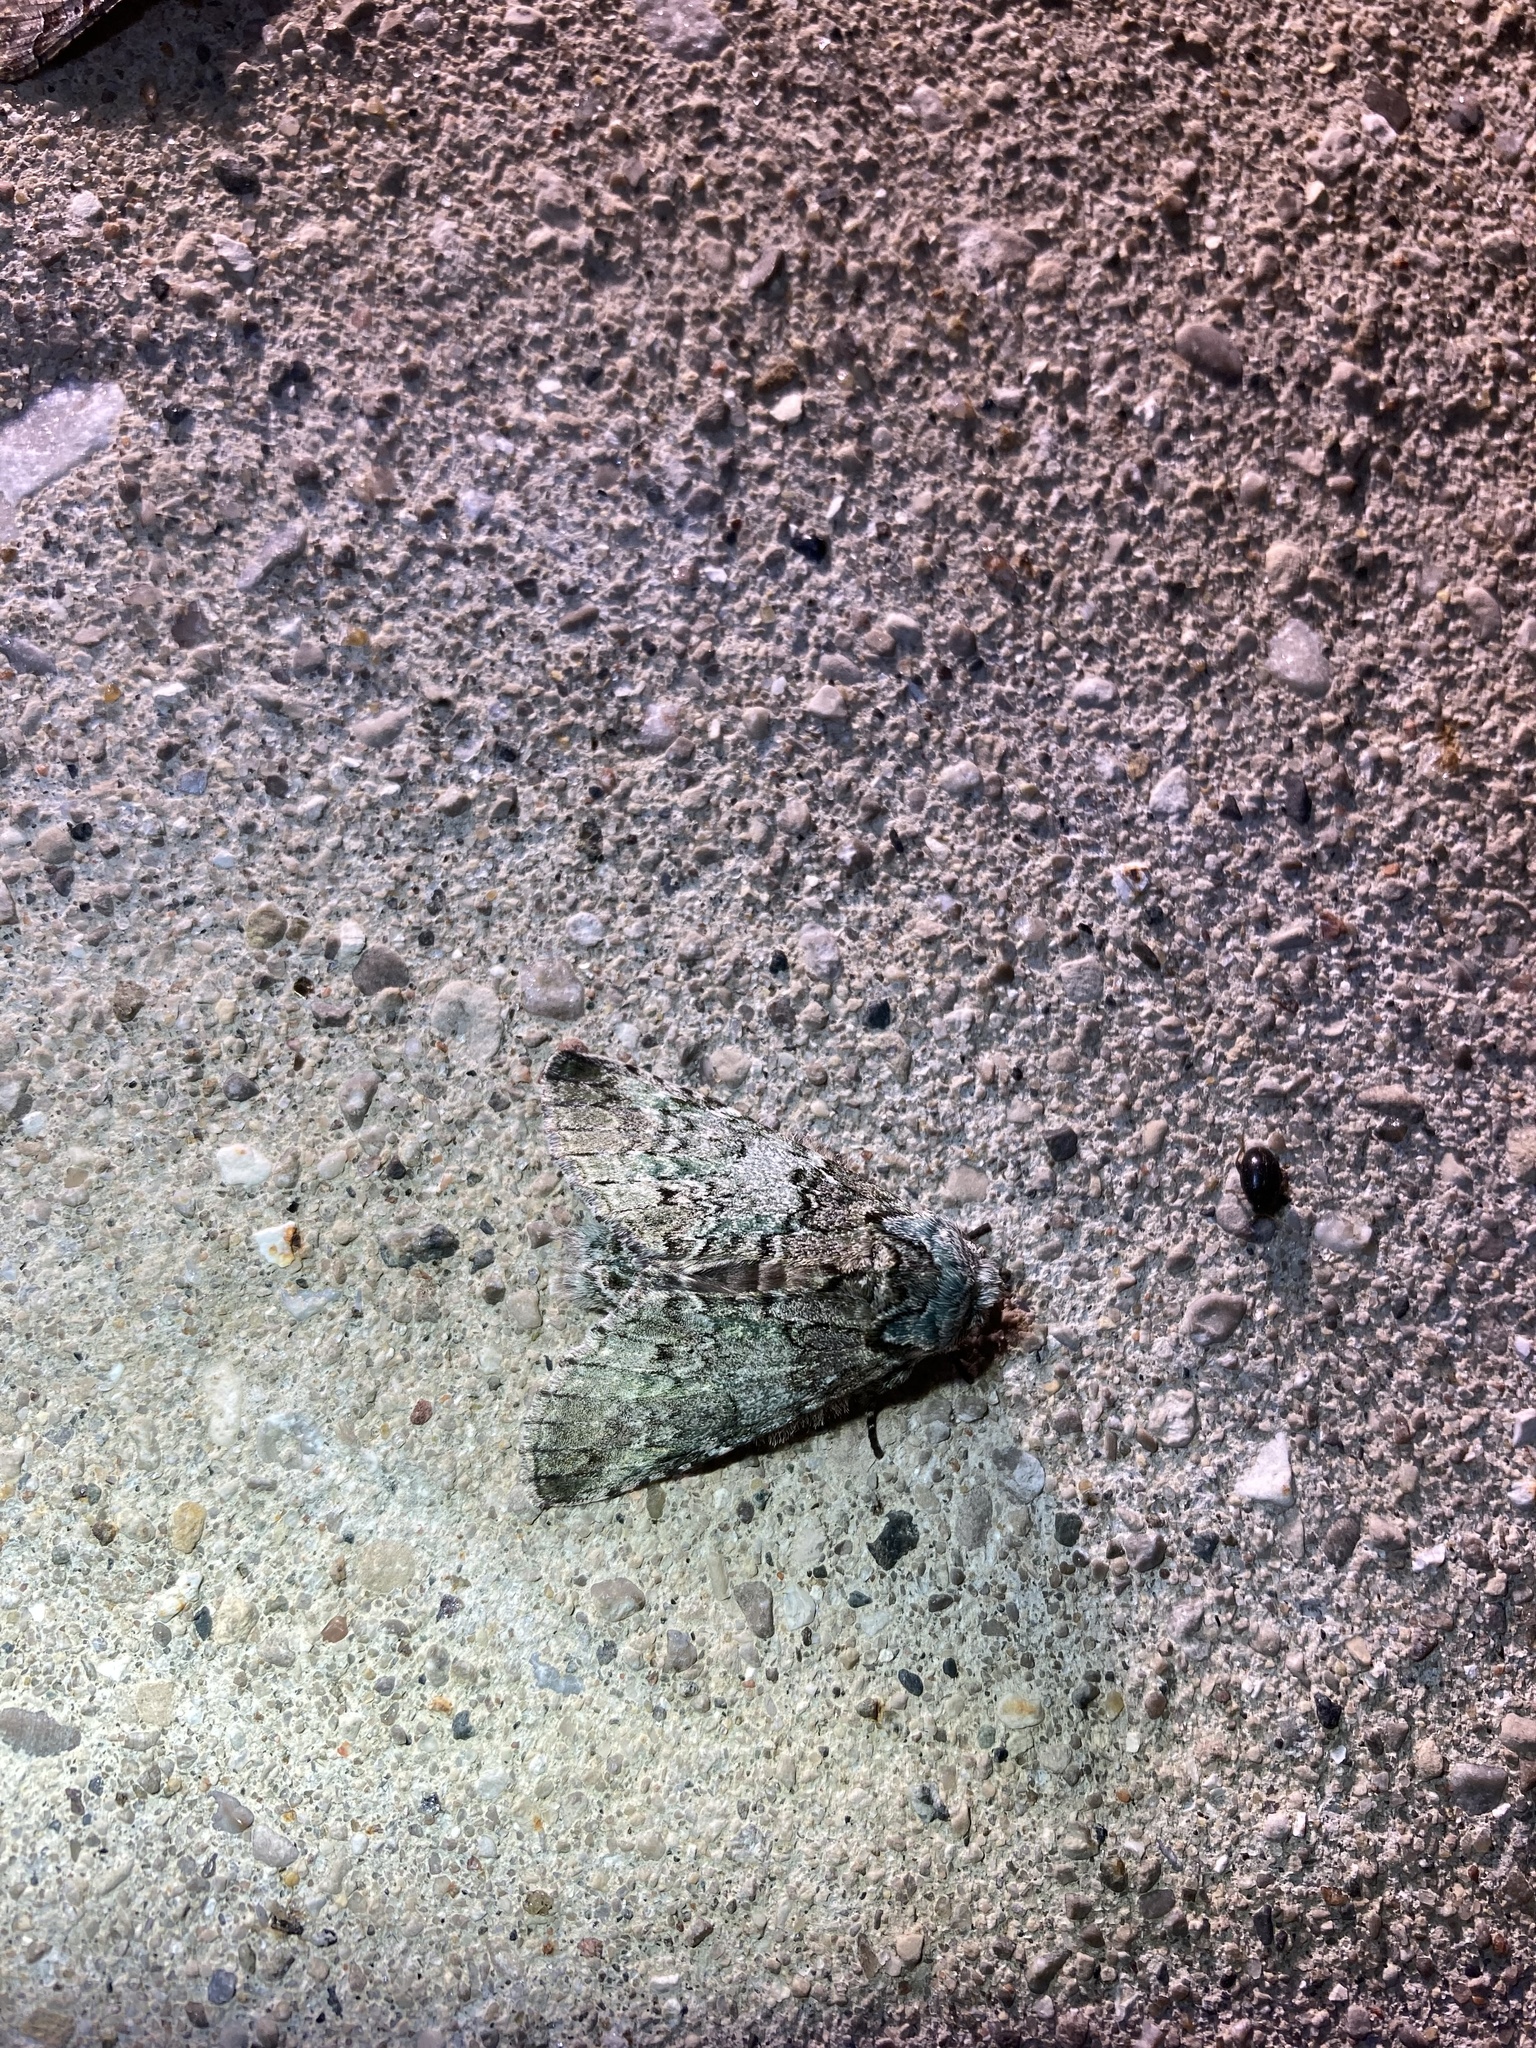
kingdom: Animalia
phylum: Arthropoda
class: Insecta
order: Lepidoptera
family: Notodontidae
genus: Macrurocampa
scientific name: Macrurocampa marthesia
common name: Mottled prominent
